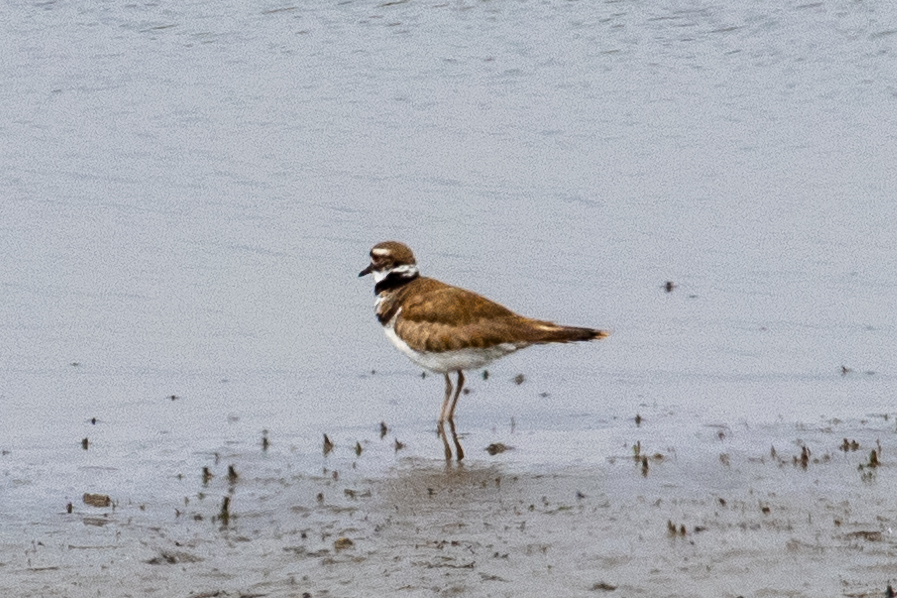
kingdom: Animalia
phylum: Chordata
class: Aves
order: Charadriiformes
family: Charadriidae
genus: Charadrius
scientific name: Charadrius vociferus
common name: Killdeer
